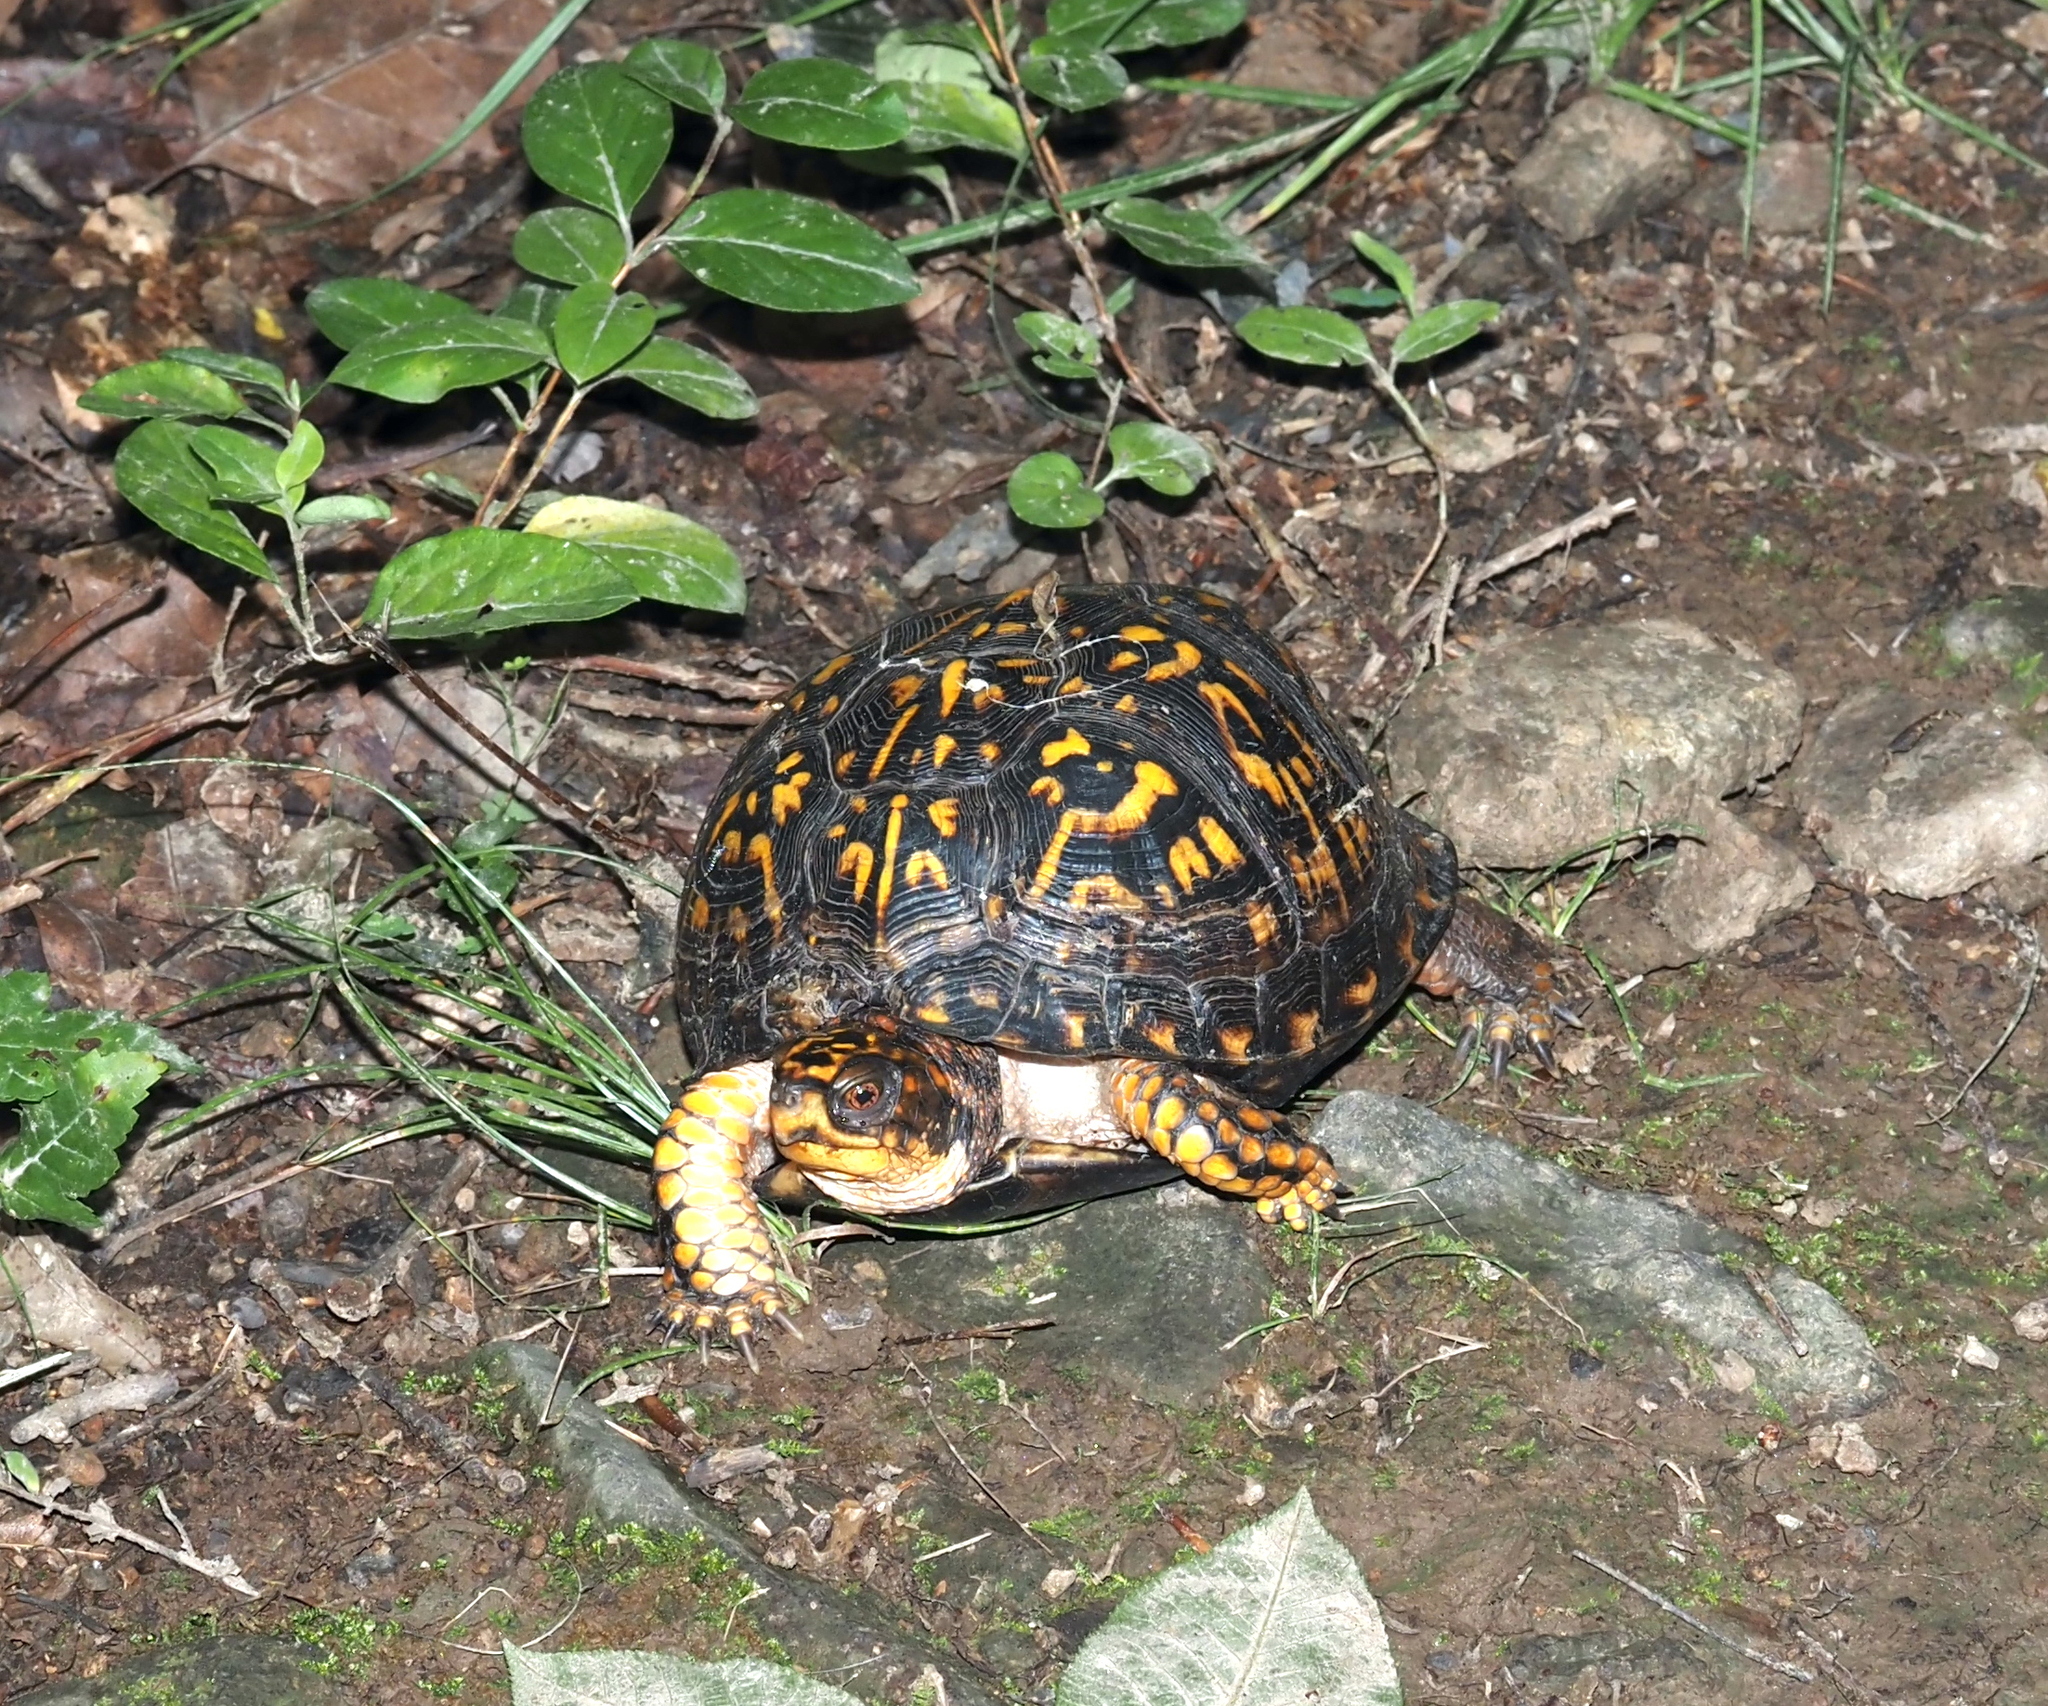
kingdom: Animalia
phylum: Chordata
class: Testudines
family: Emydidae
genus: Terrapene
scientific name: Terrapene carolina
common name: Common box turtle
